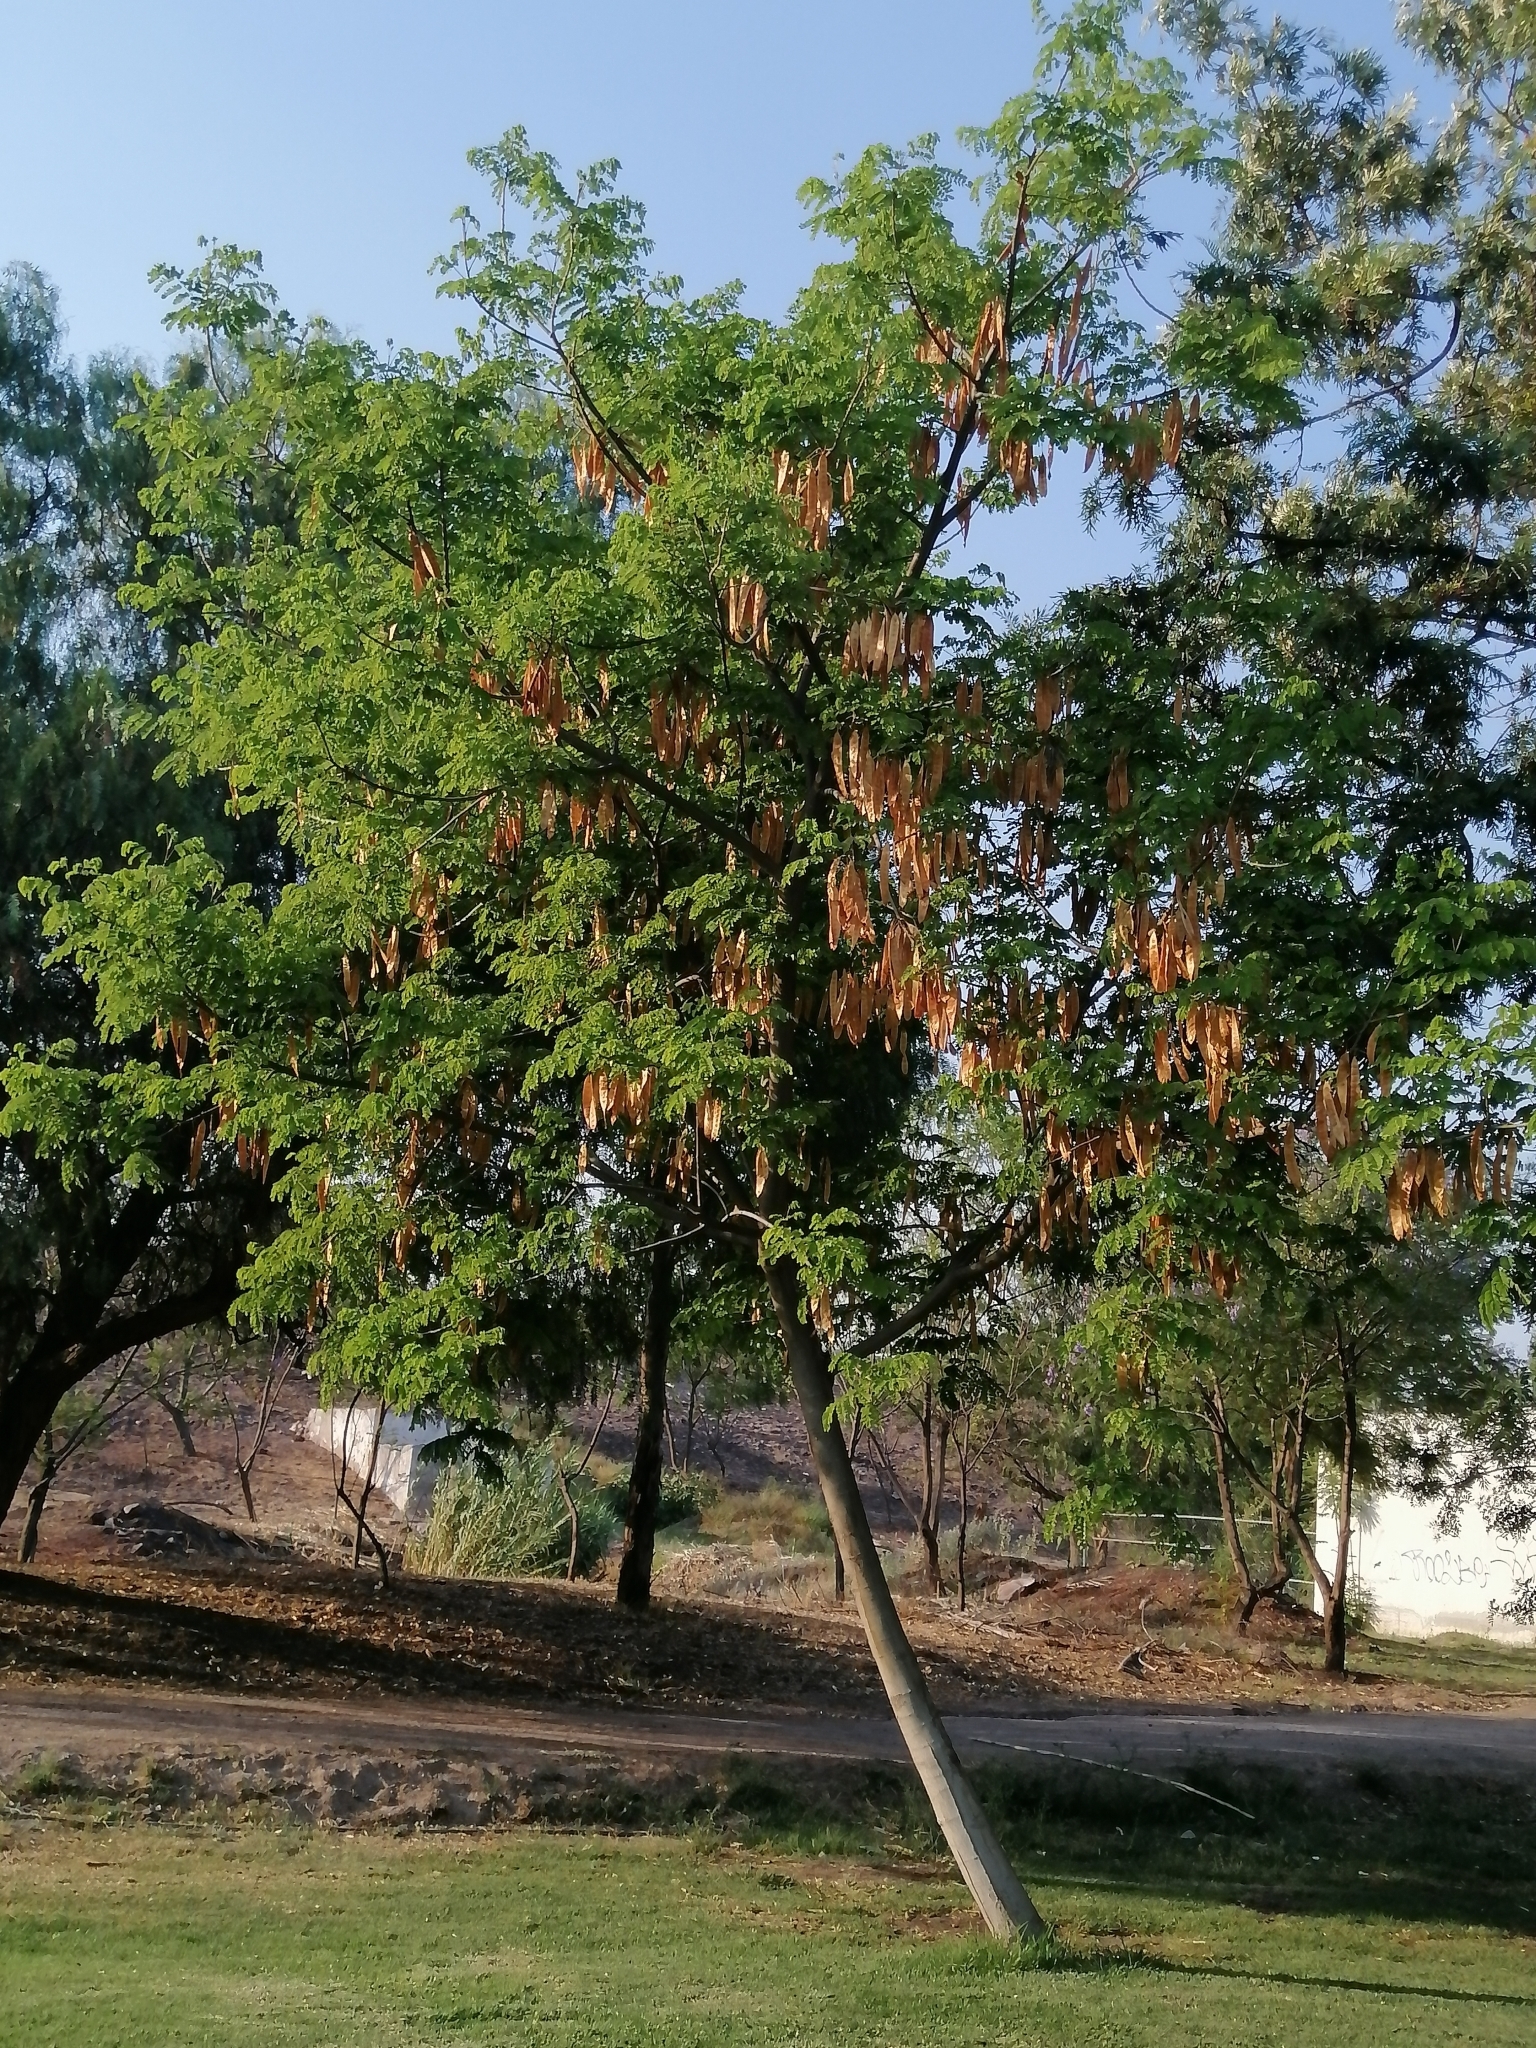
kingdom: Plantae
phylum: Tracheophyta
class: Magnoliopsida
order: Fabales
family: Fabaceae
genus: Albizia
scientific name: Albizia occidentalis
